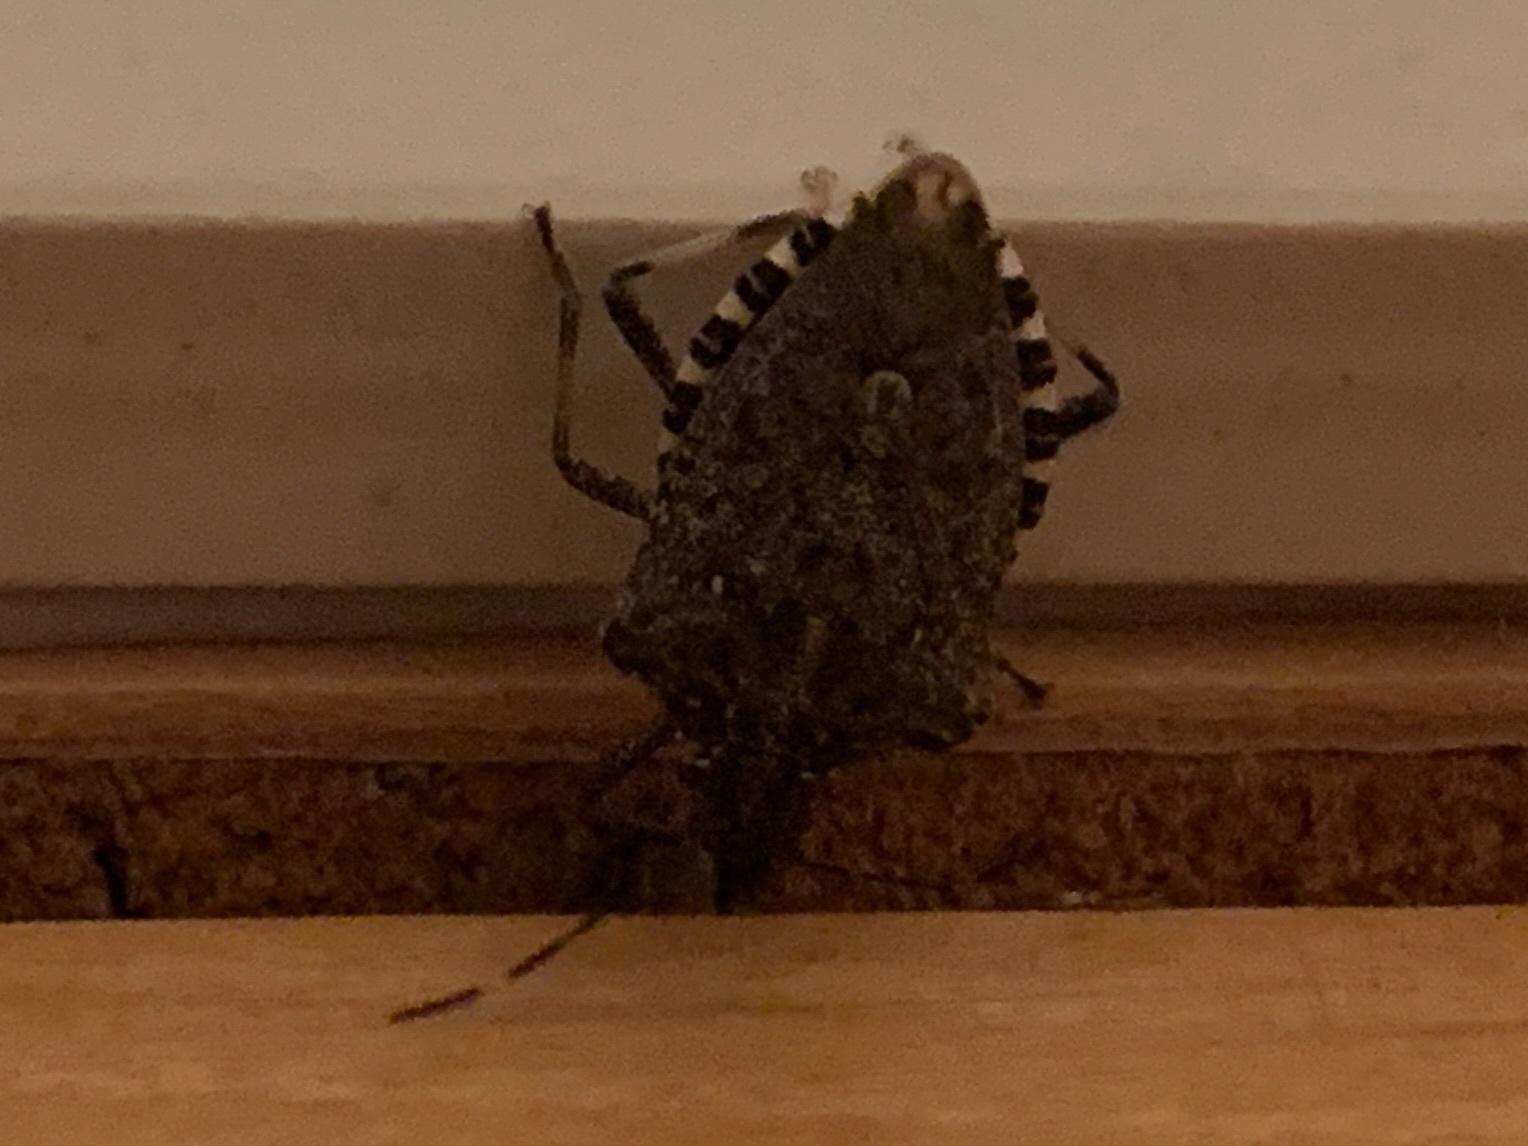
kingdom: Animalia
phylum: Arthropoda
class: Insecta
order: Hemiptera
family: Pentatomidae
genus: Halyomorpha
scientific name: Halyomorpha halys
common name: Brown marmorated stink bug
